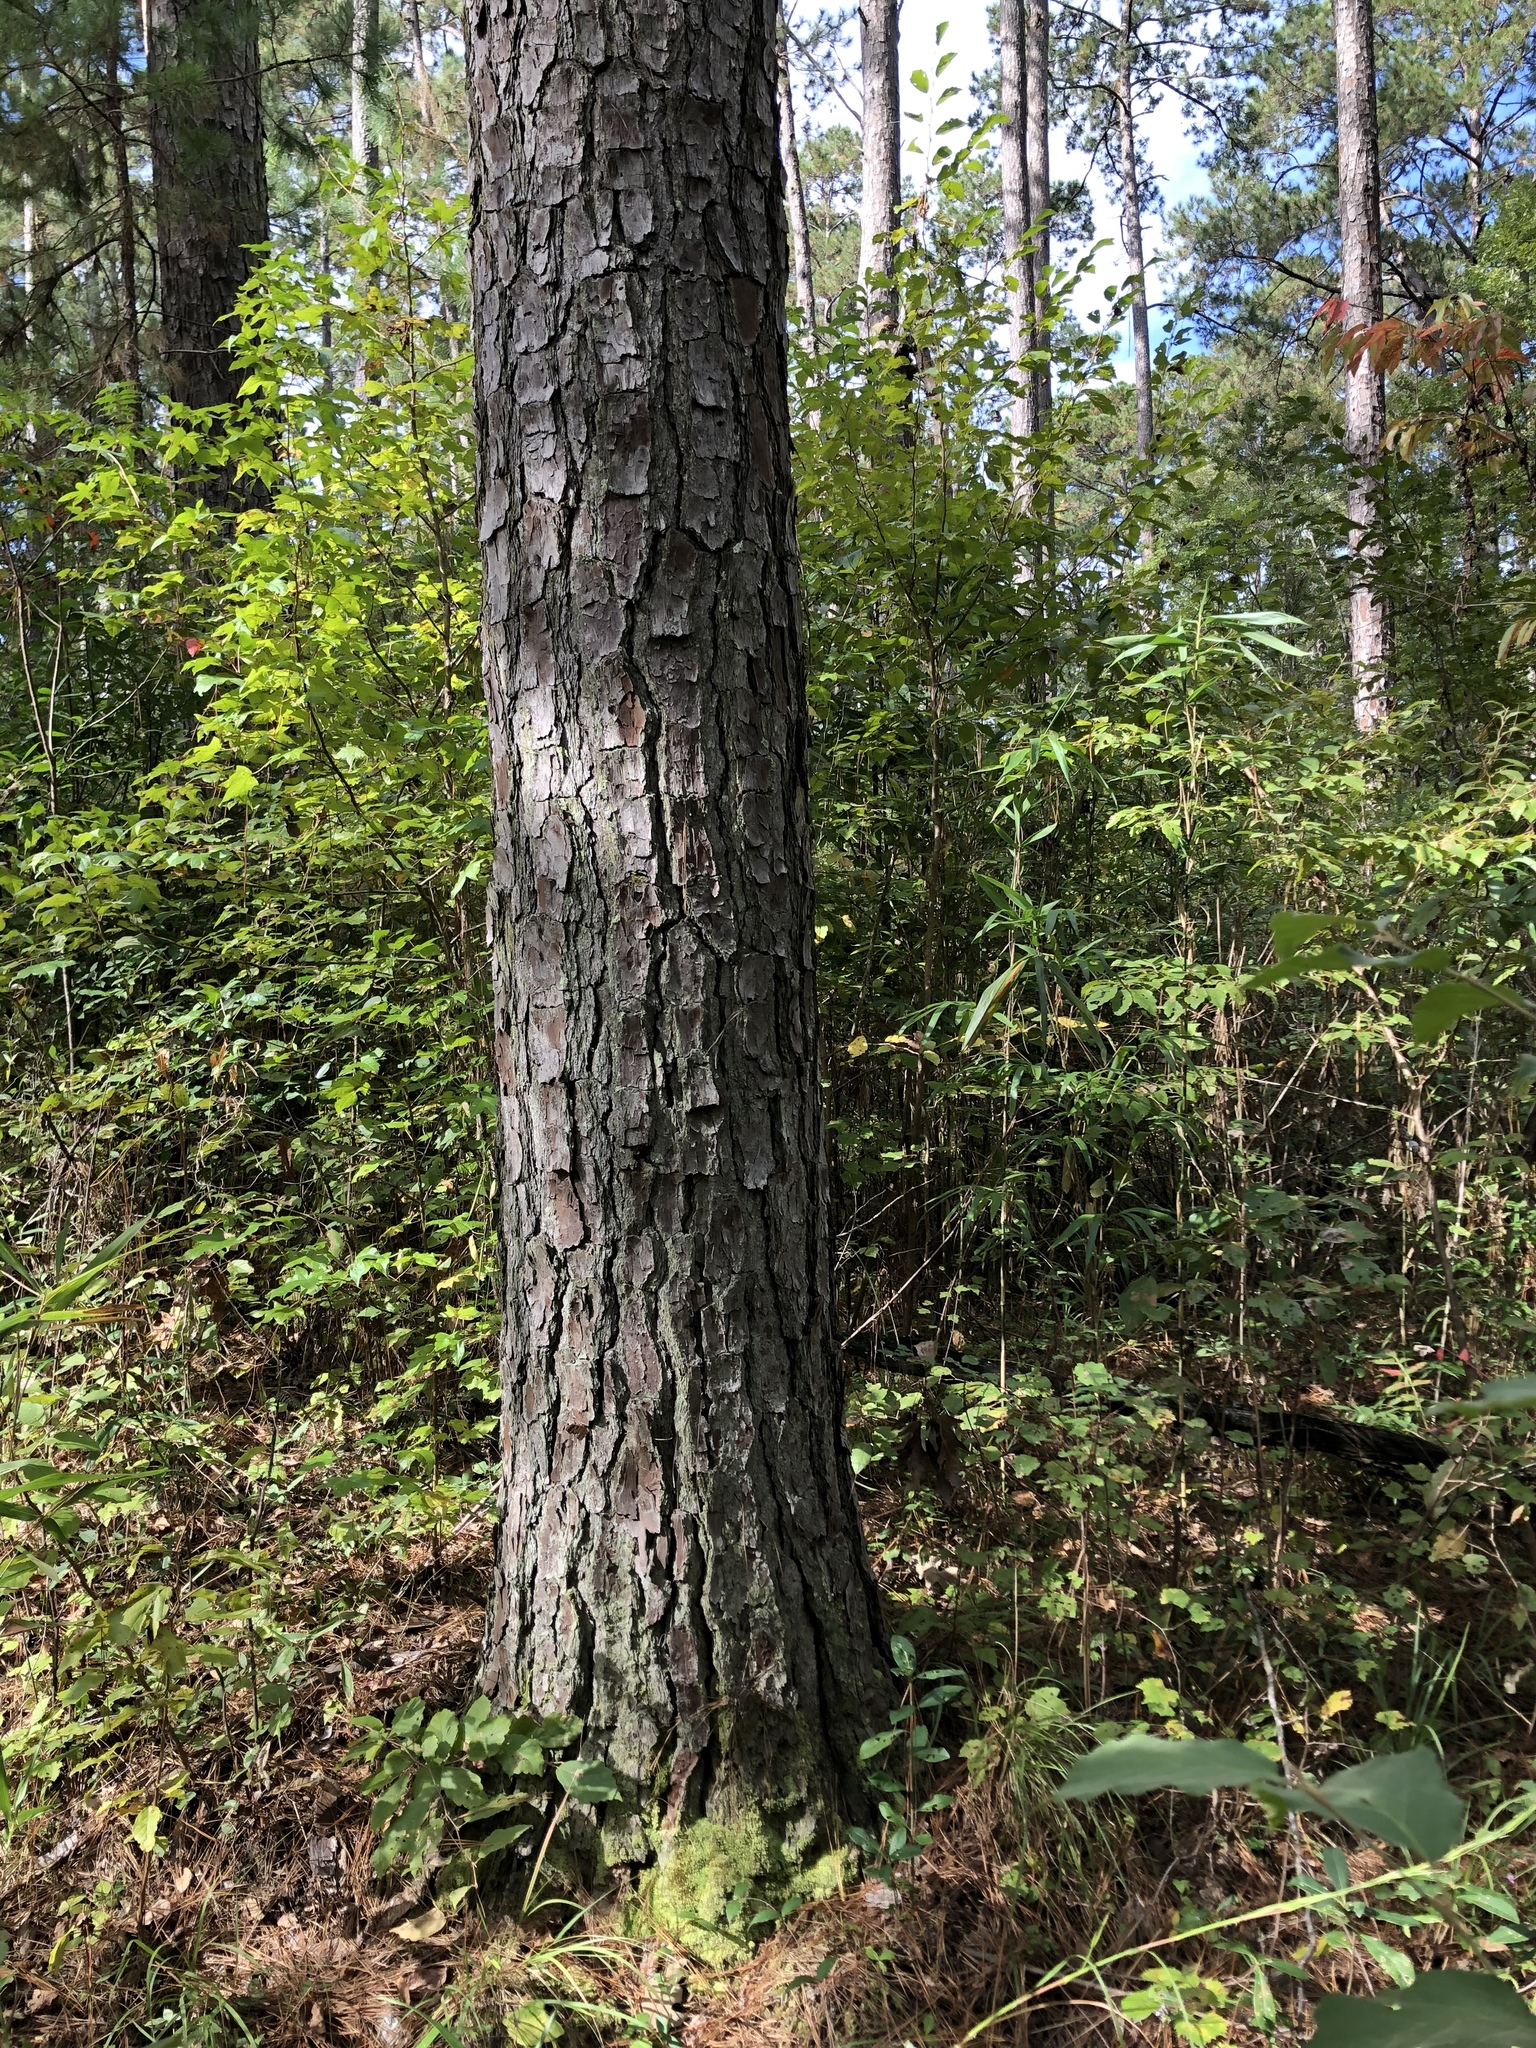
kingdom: Plantae
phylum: Tracheophyta
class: Magnoliopsida
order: Asterales
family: Asteraceae
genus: Solidago
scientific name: Solidago zedia
